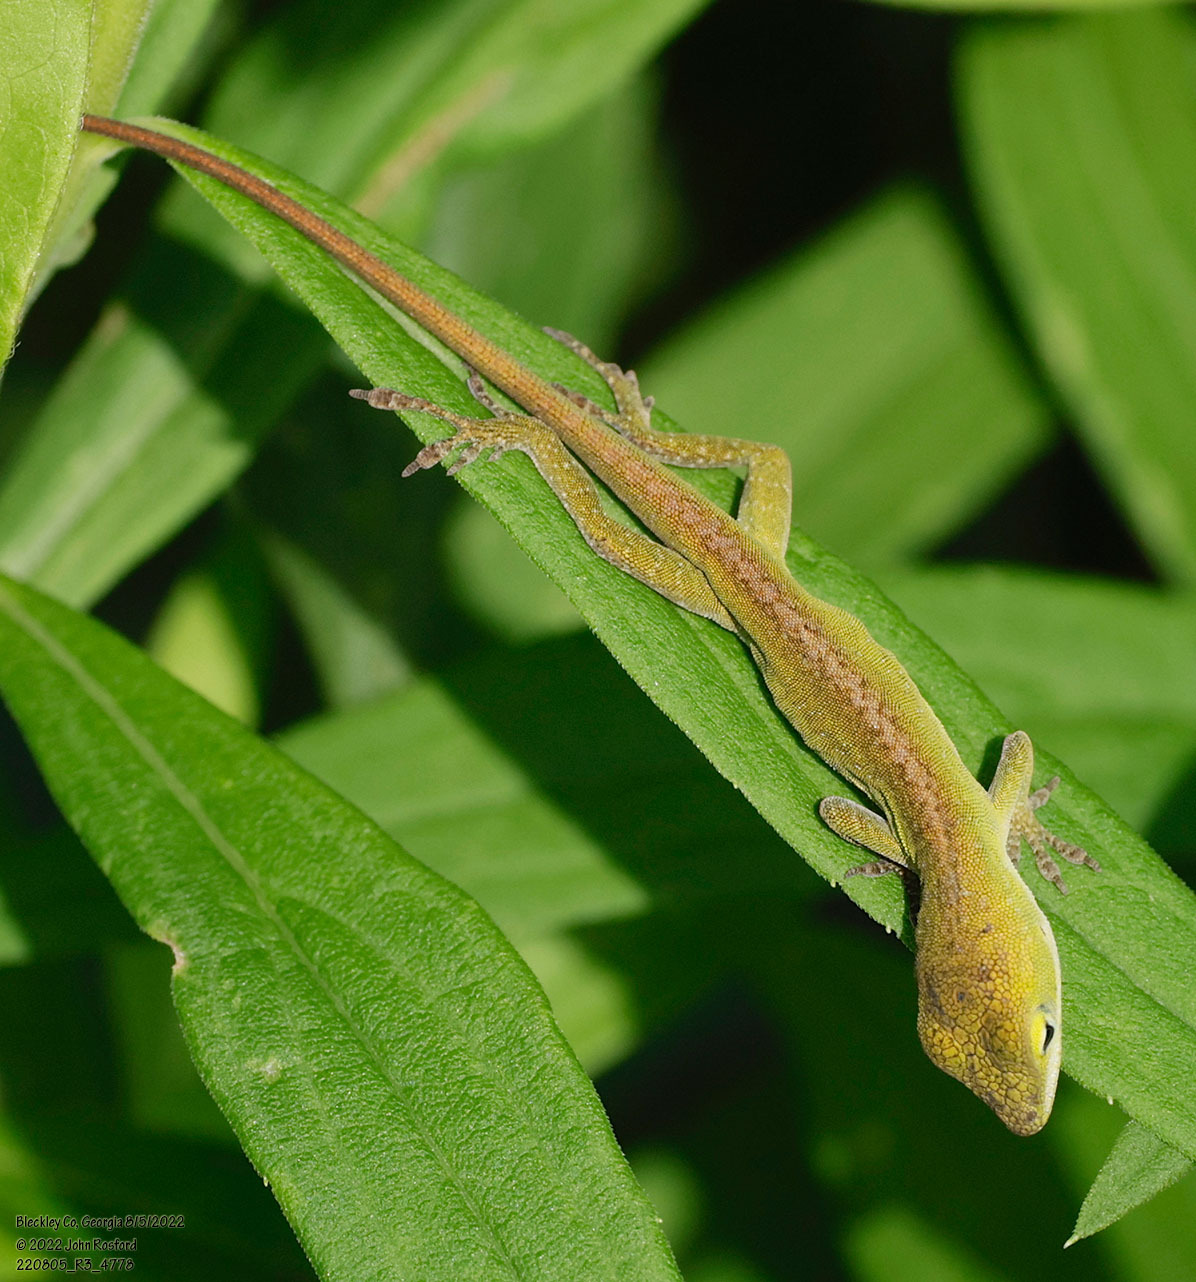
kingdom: Animalia
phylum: Chordata
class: Squamata
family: Dactyloidae
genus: Anolis
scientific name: Anolis carolinensis
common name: Green anole
